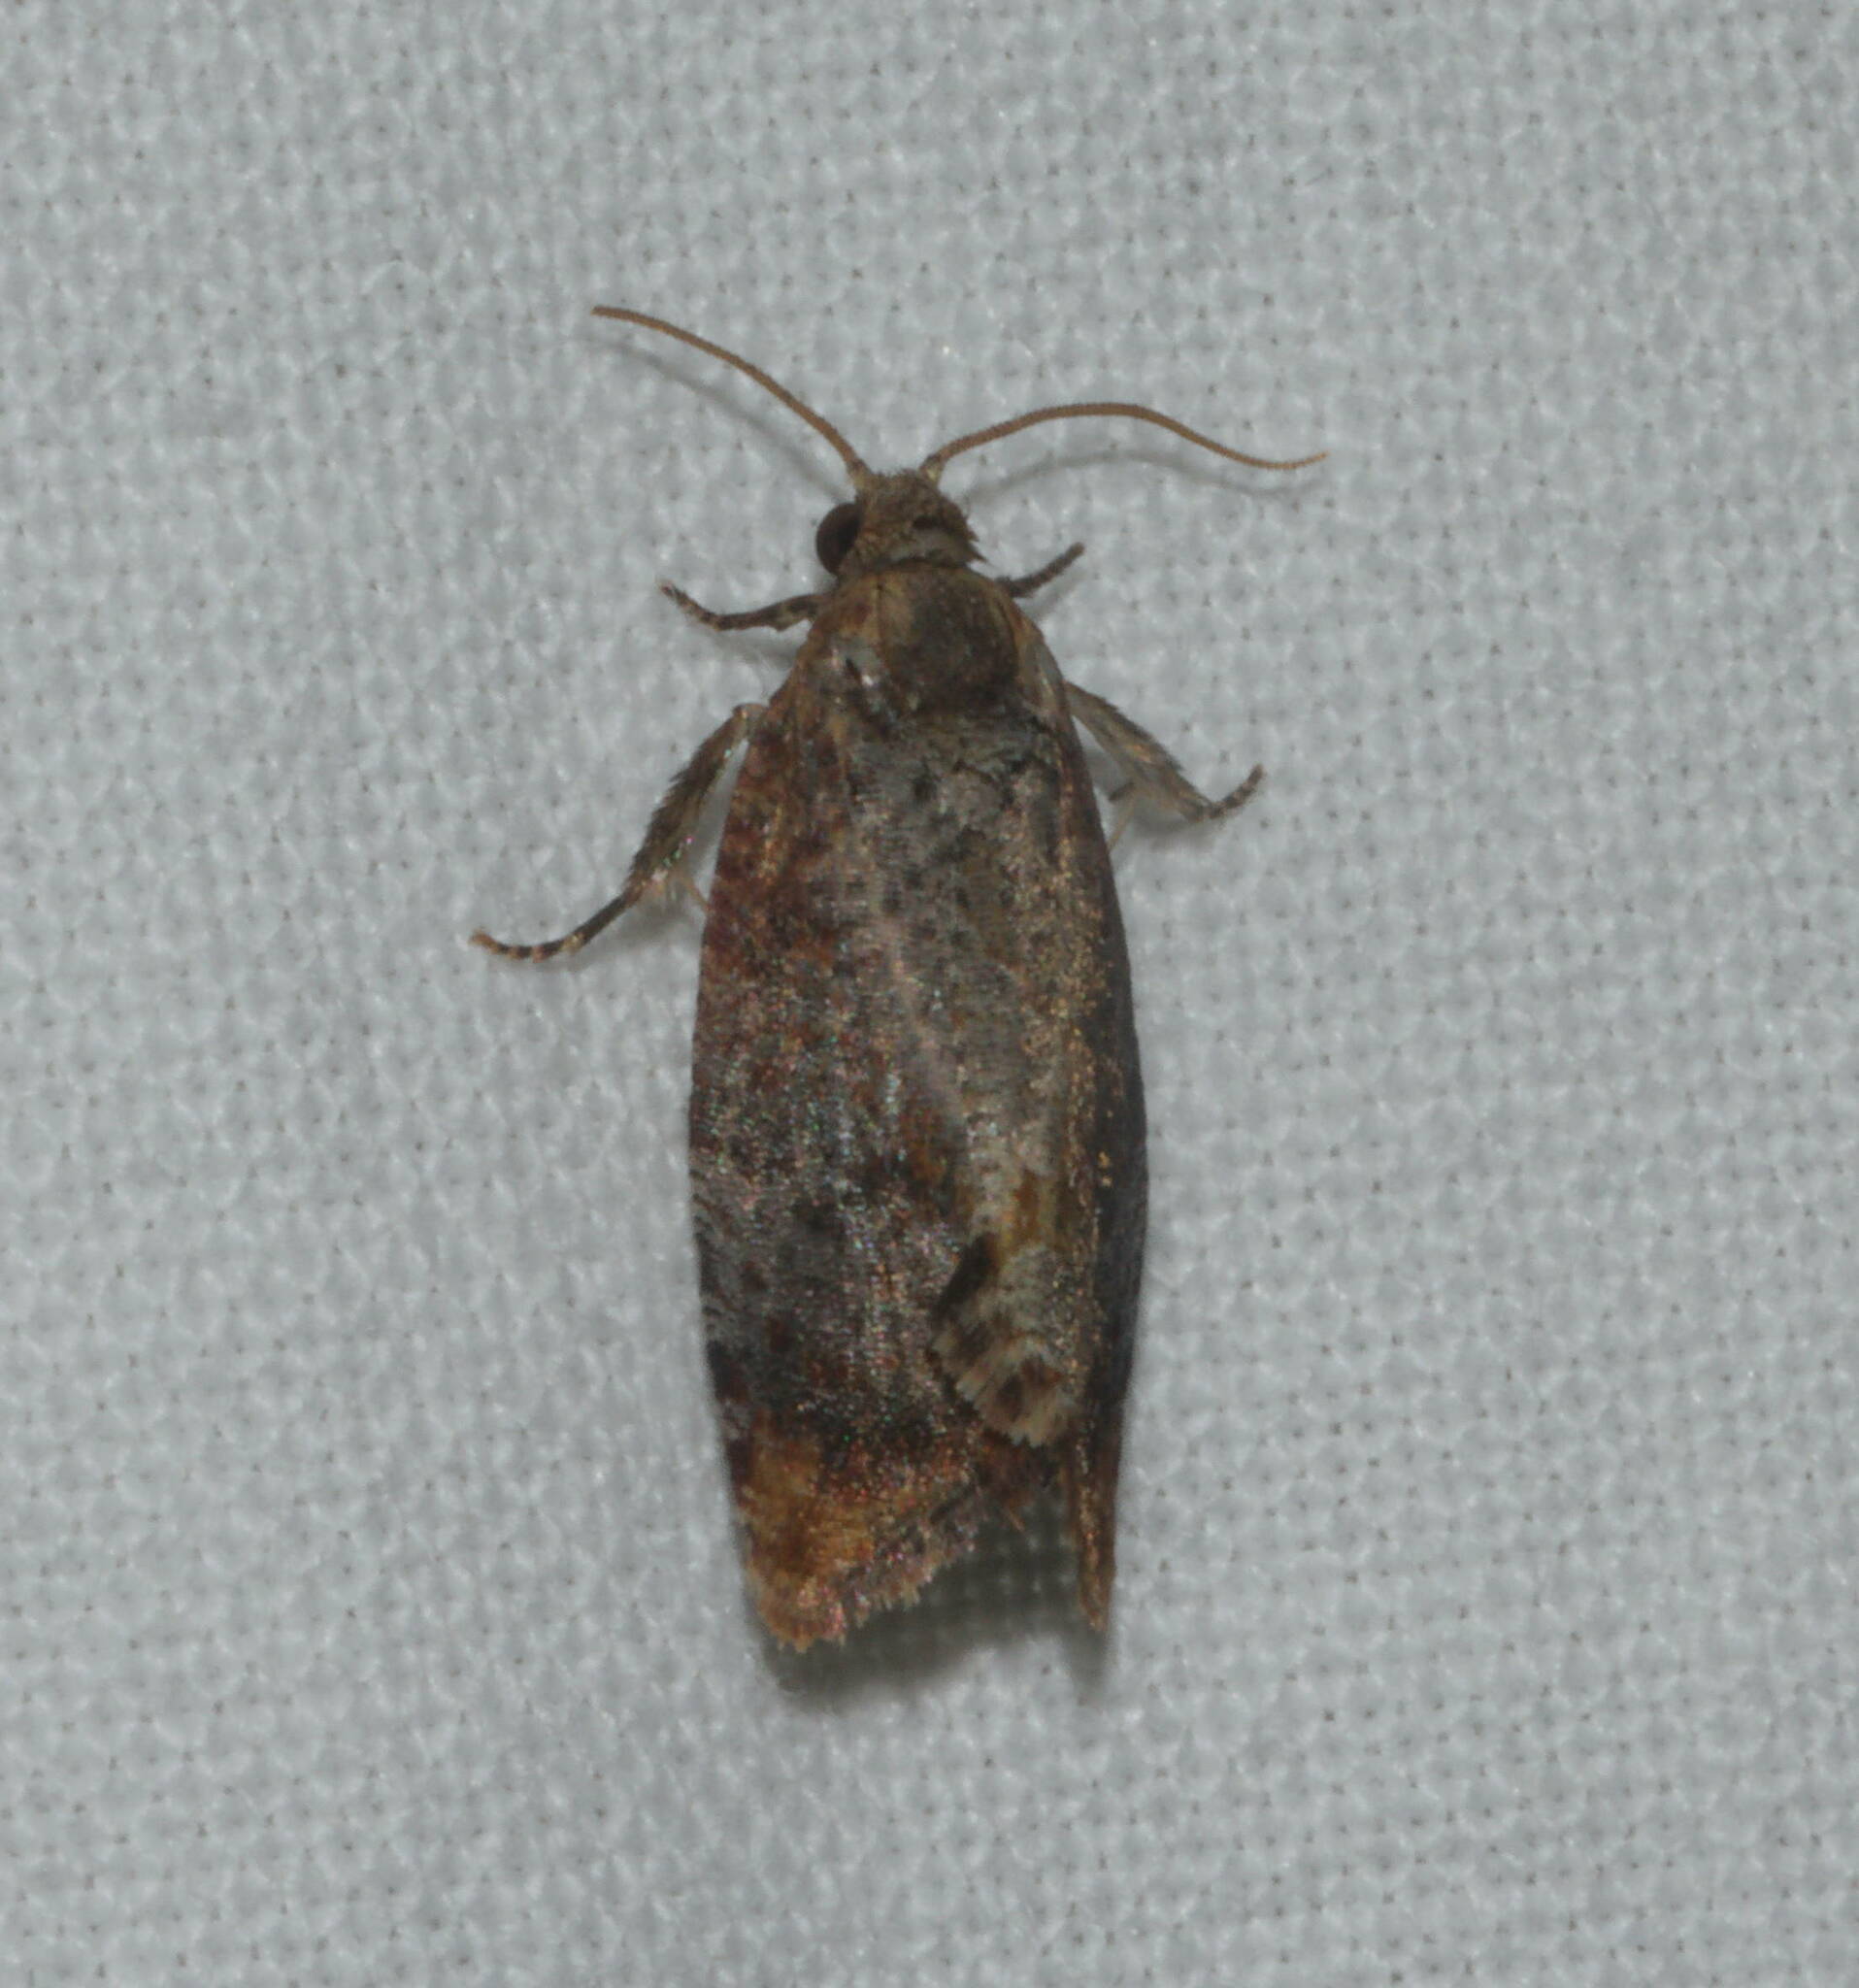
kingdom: Animalia
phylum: Arthropoda
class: Insecta
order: Lepidoptera
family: Tortricidae
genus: Cryptophlebia
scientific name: Cryptophlebia illepida
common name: Moth
